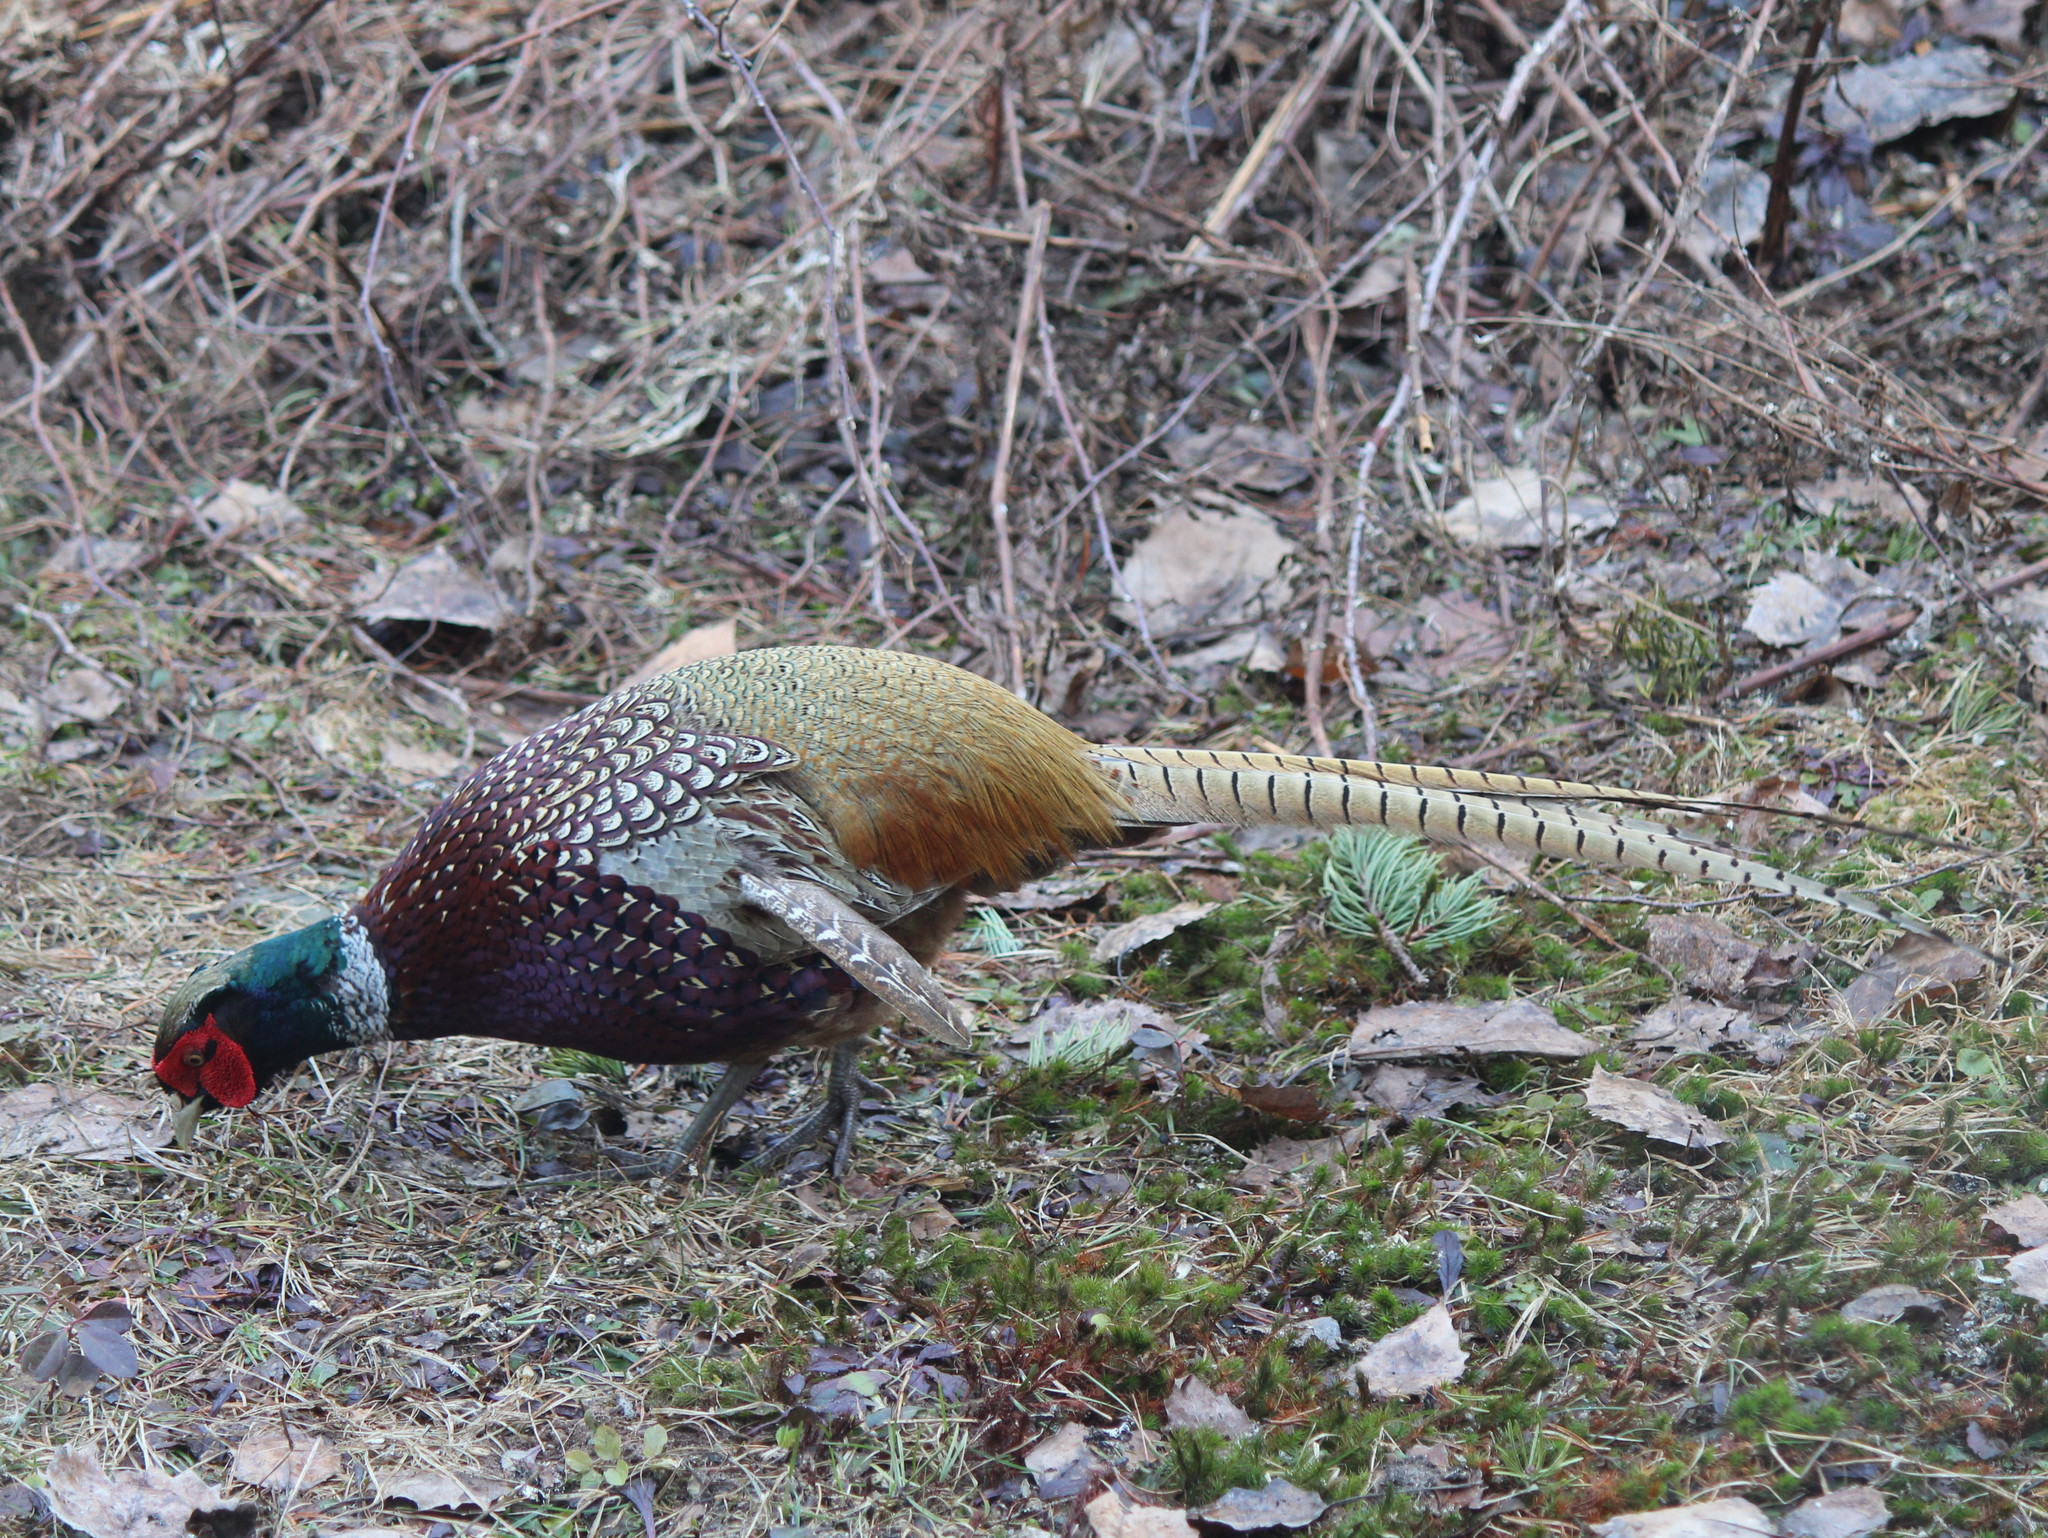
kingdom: Animalia
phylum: Chordata
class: Aves
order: Galliformes
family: Phasianidae
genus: Phasianus
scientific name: Phasianus colchicus
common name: Common pheasant
